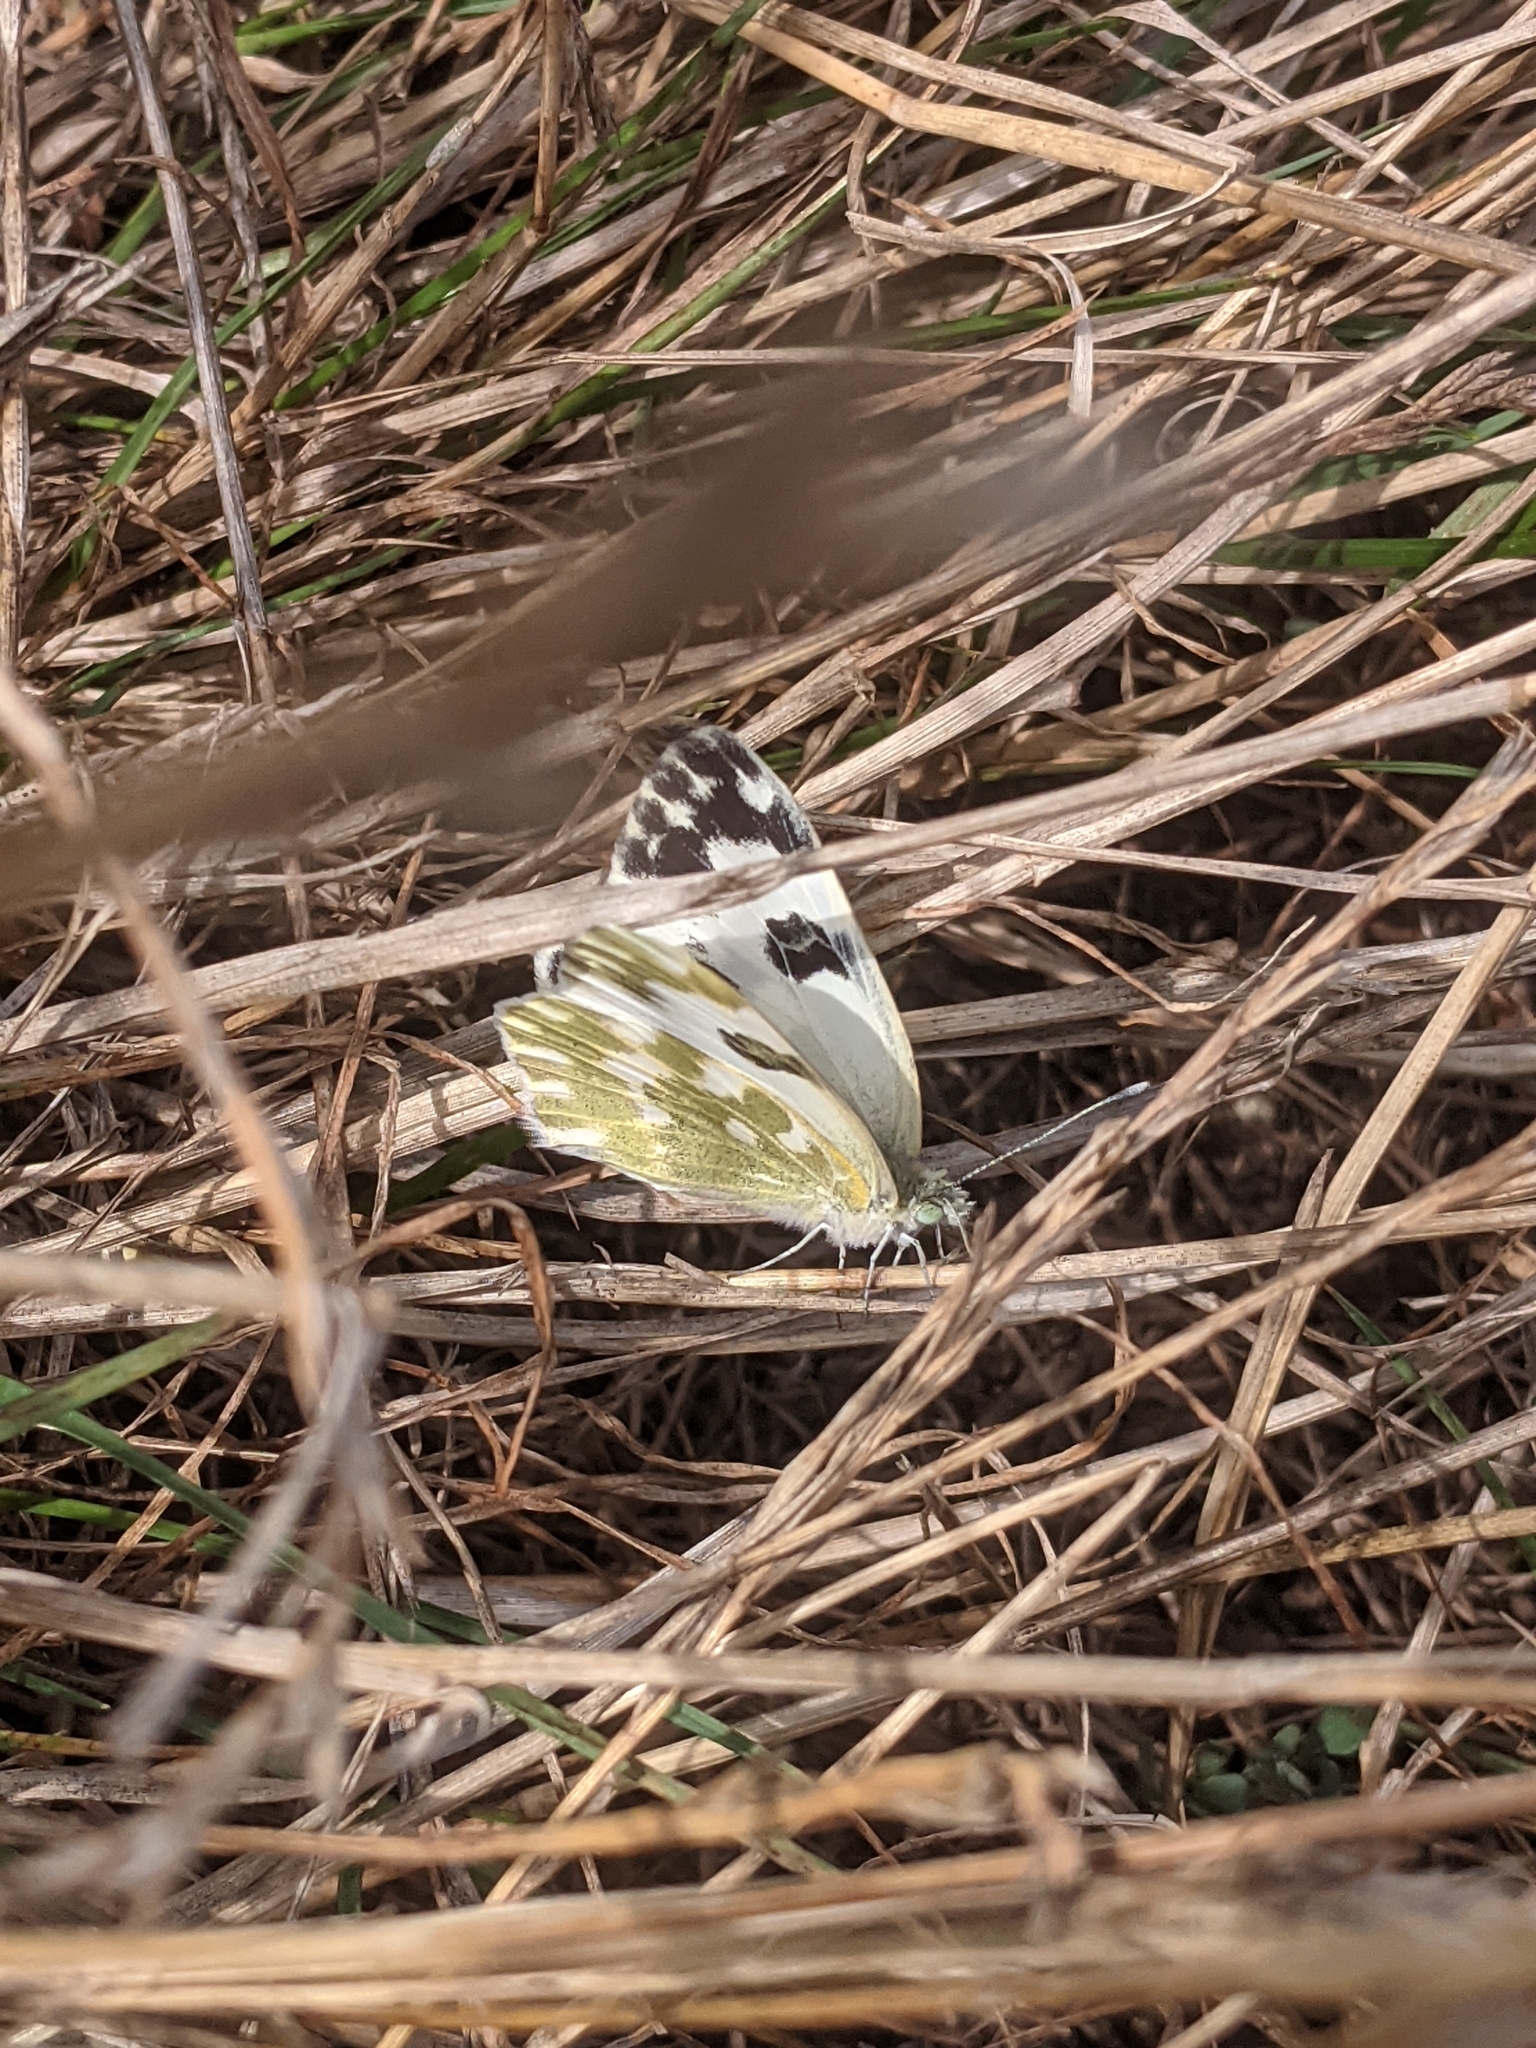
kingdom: Animalia
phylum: Arthropoda
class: Insecta
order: Lepidoptera
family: Pieridae
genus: Pontia
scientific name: Pontia edusa
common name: Eastern bath white
